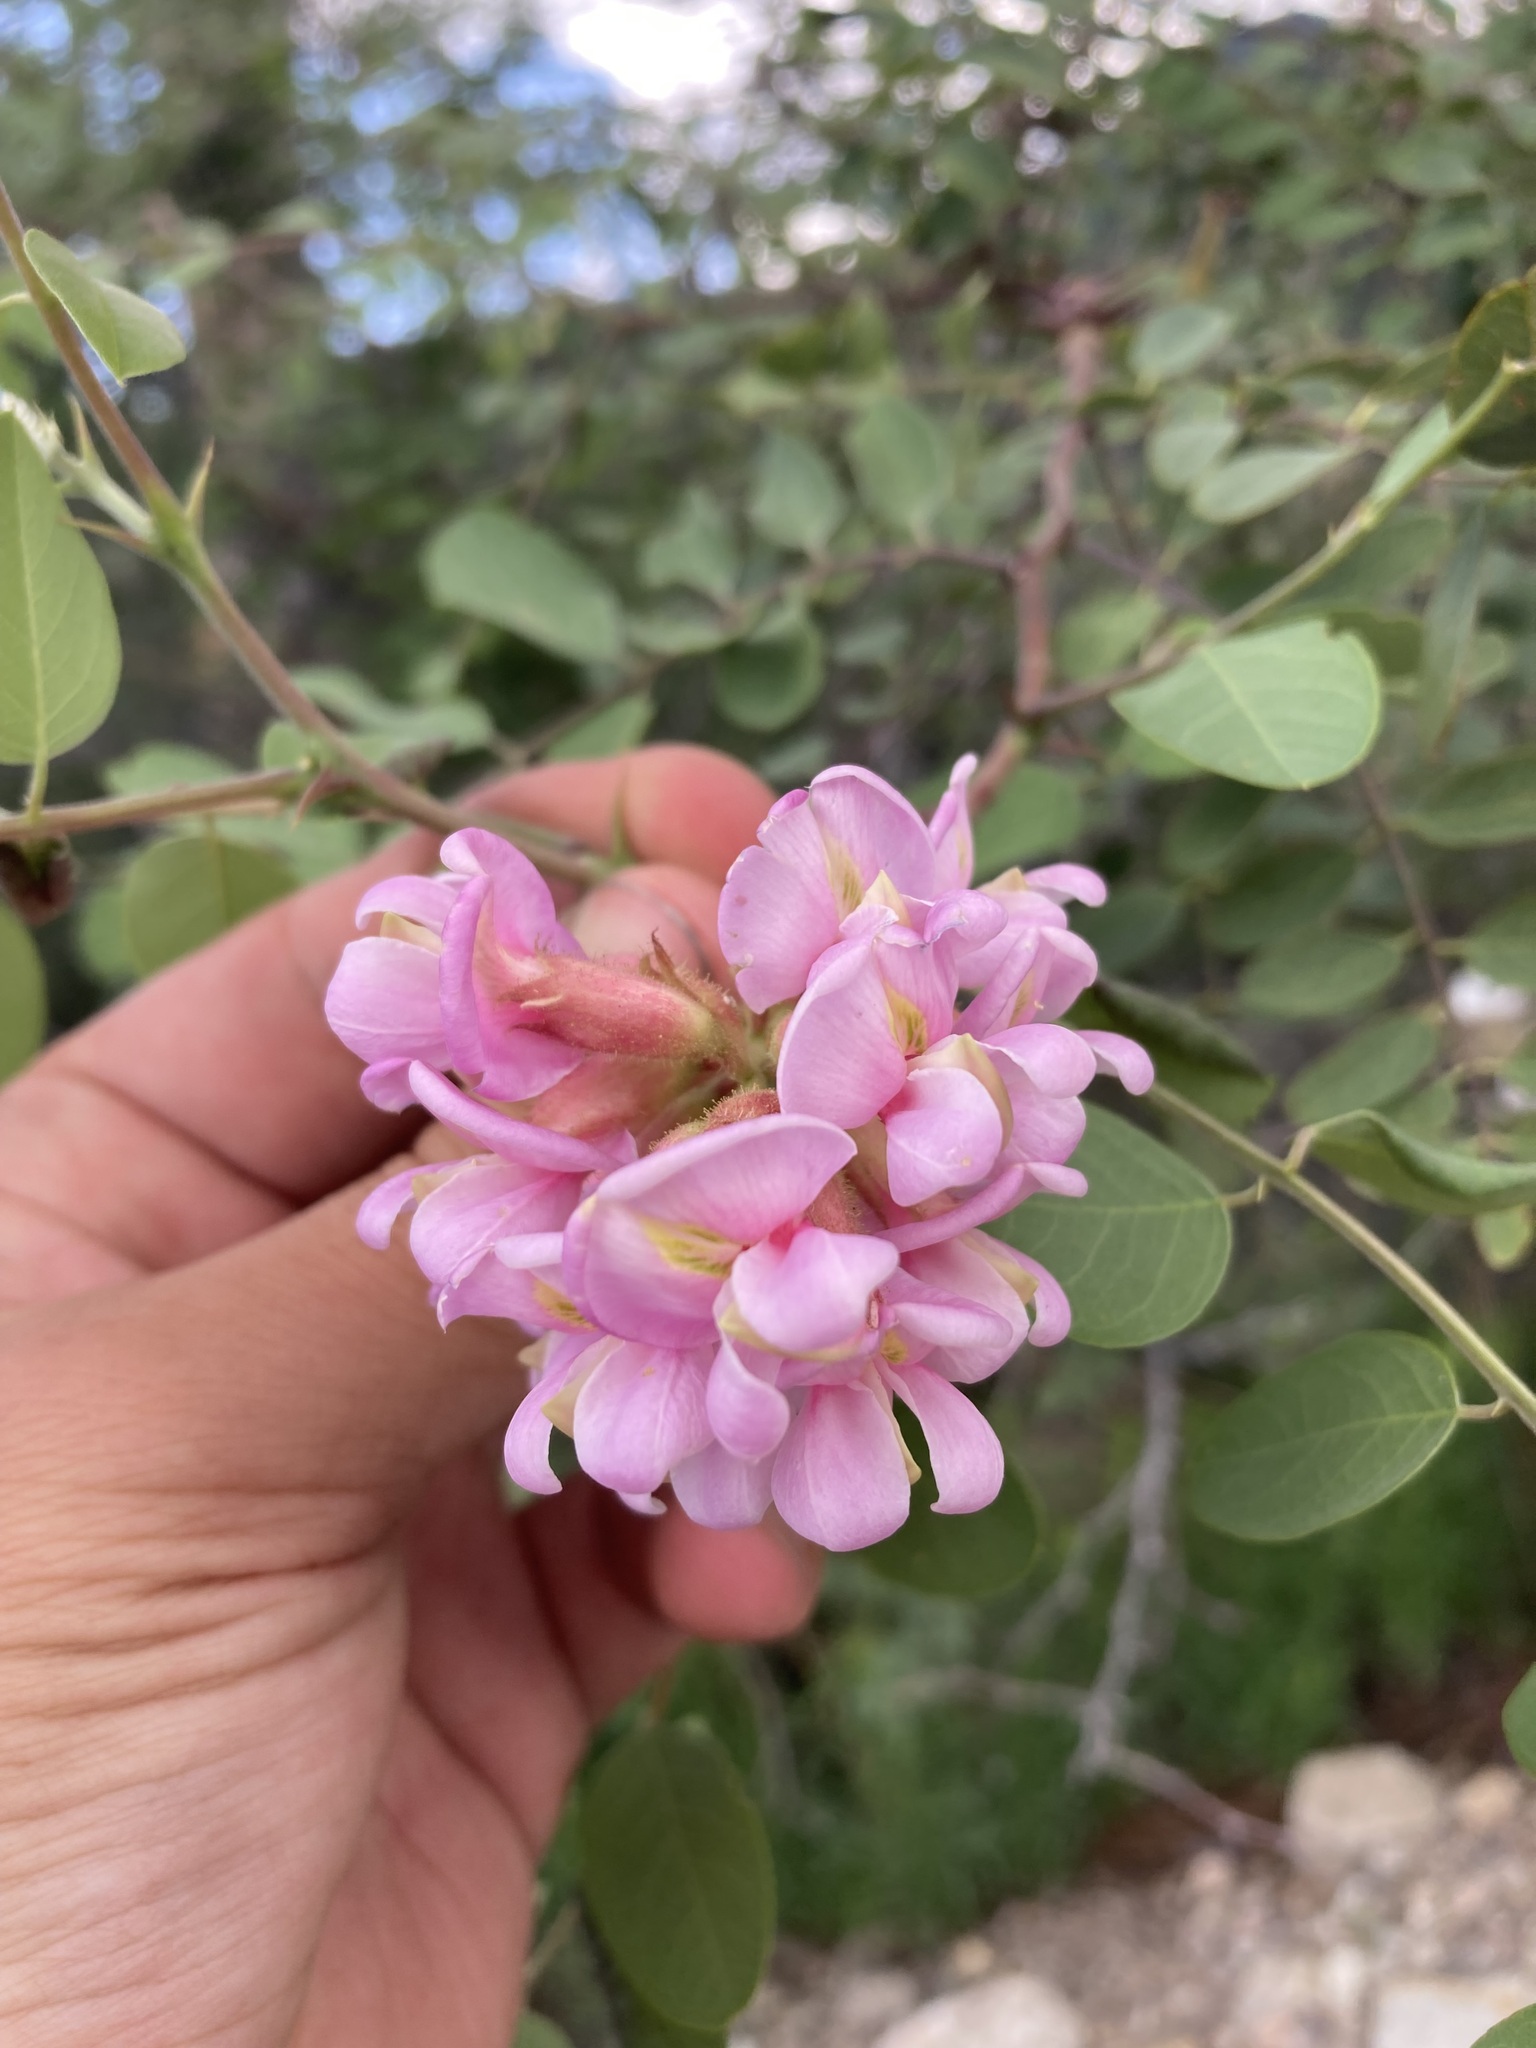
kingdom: Plantae
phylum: Tracheophyta
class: Magnoliopsida
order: Fabales
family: Fabaceae
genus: Robinia
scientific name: Robinia neomexicana
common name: New mexico locust
